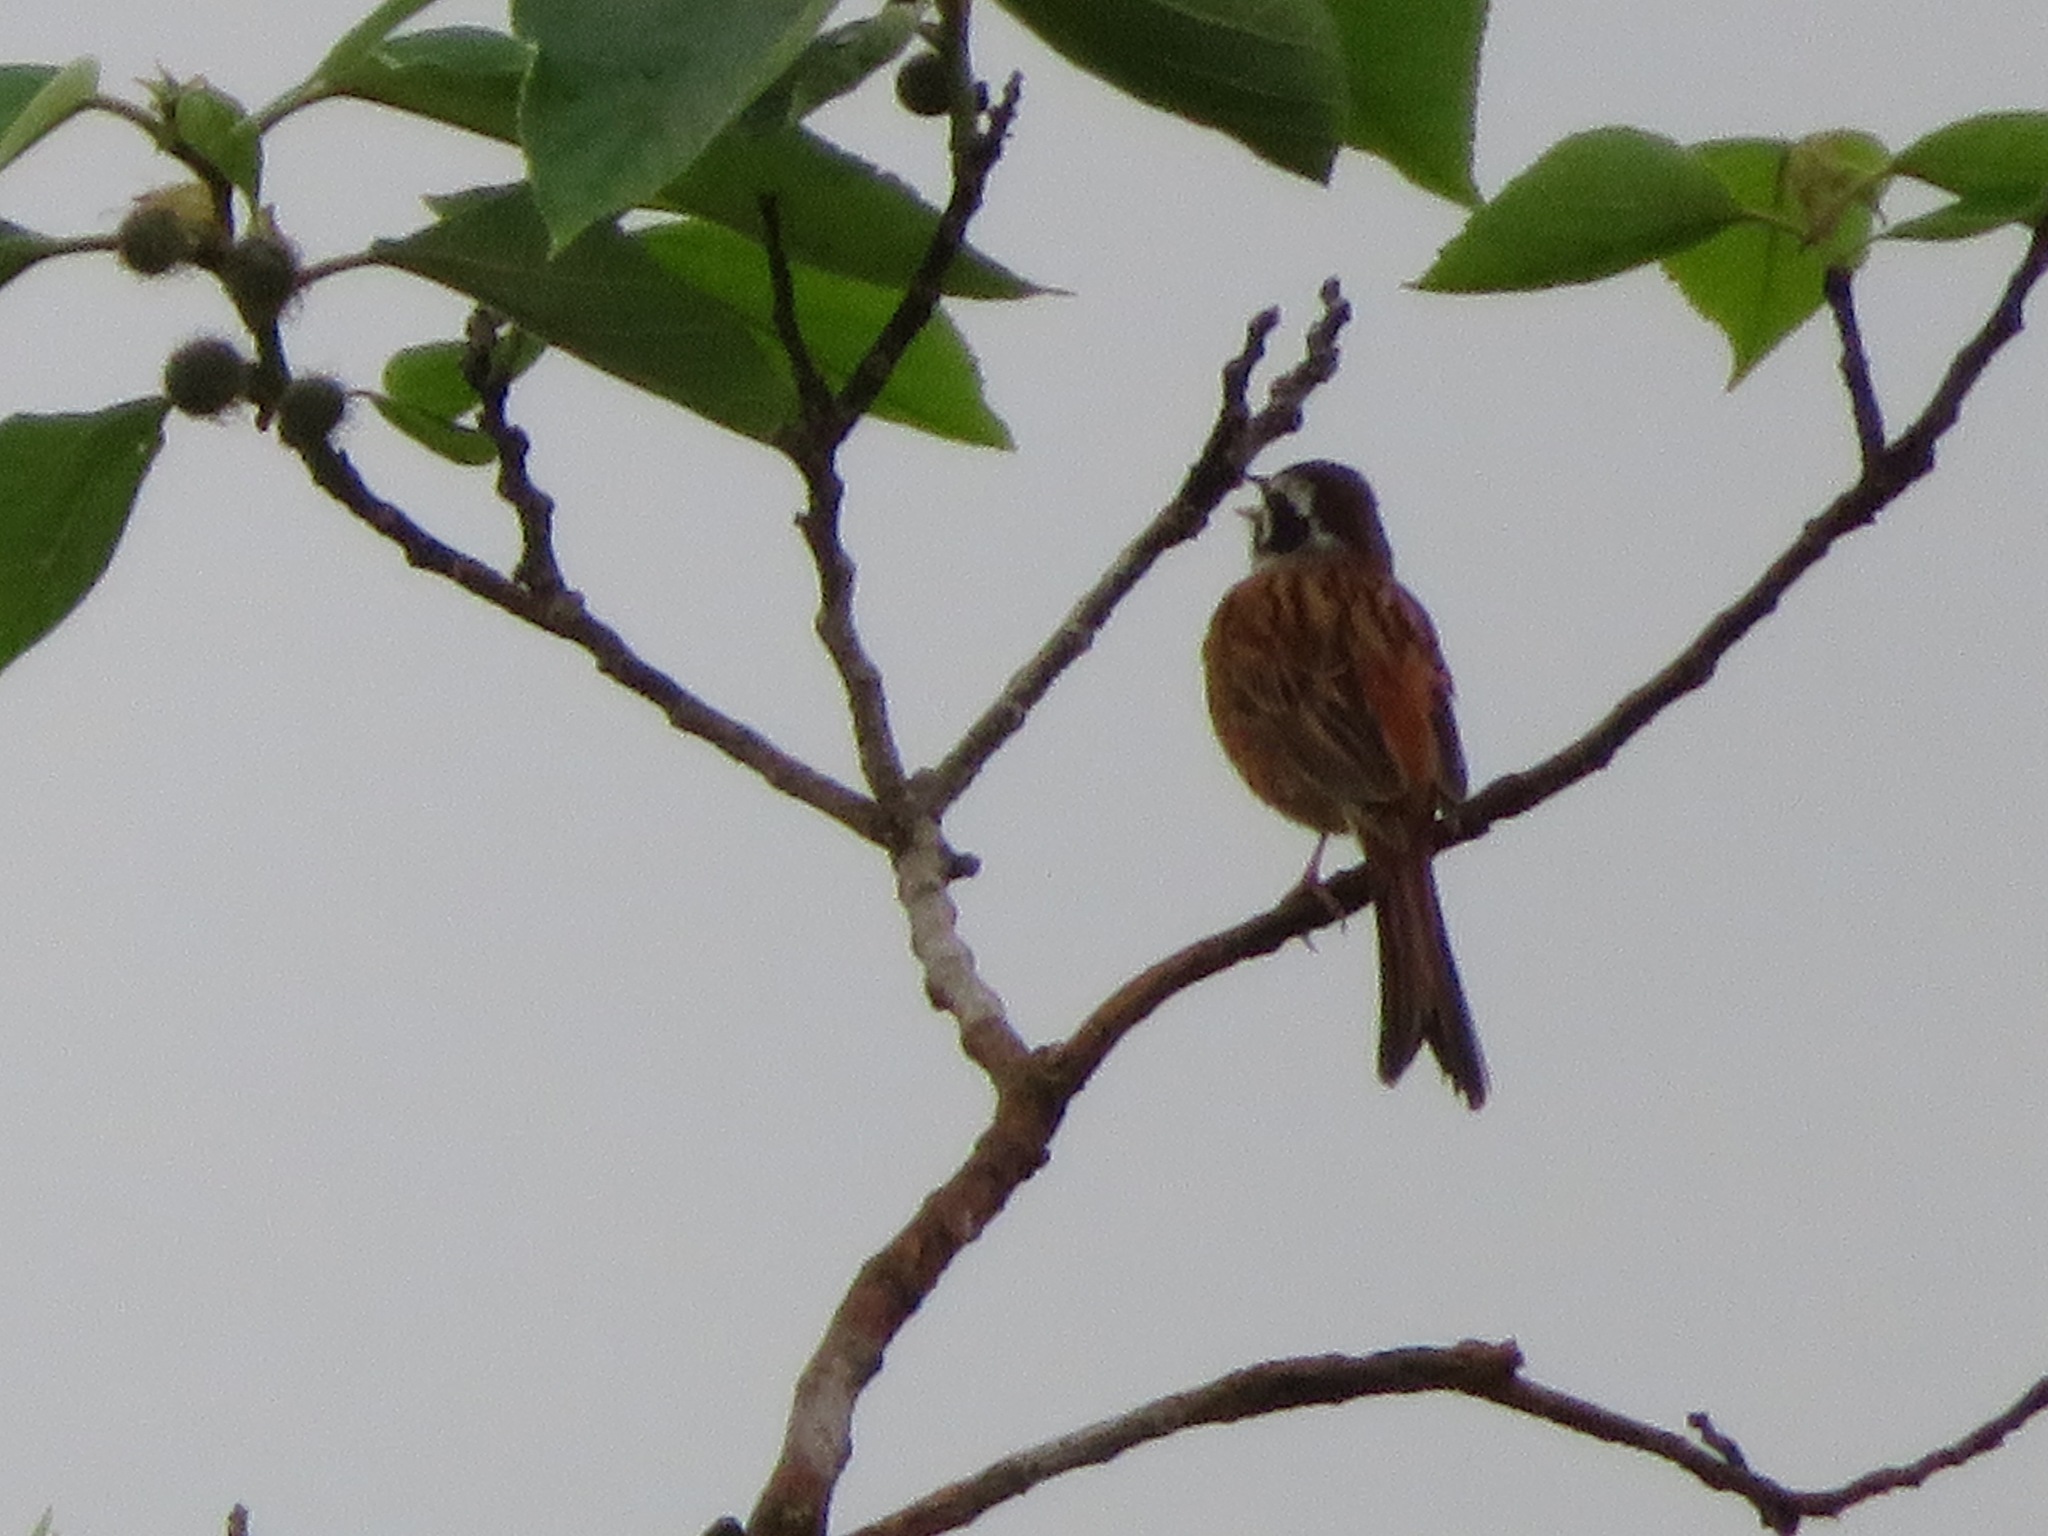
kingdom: Animalia
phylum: Chordata
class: Aves
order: Passeriformes
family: Emberizidae
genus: Emberiza
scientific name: Emberiza cioides
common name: Meadow bunting
